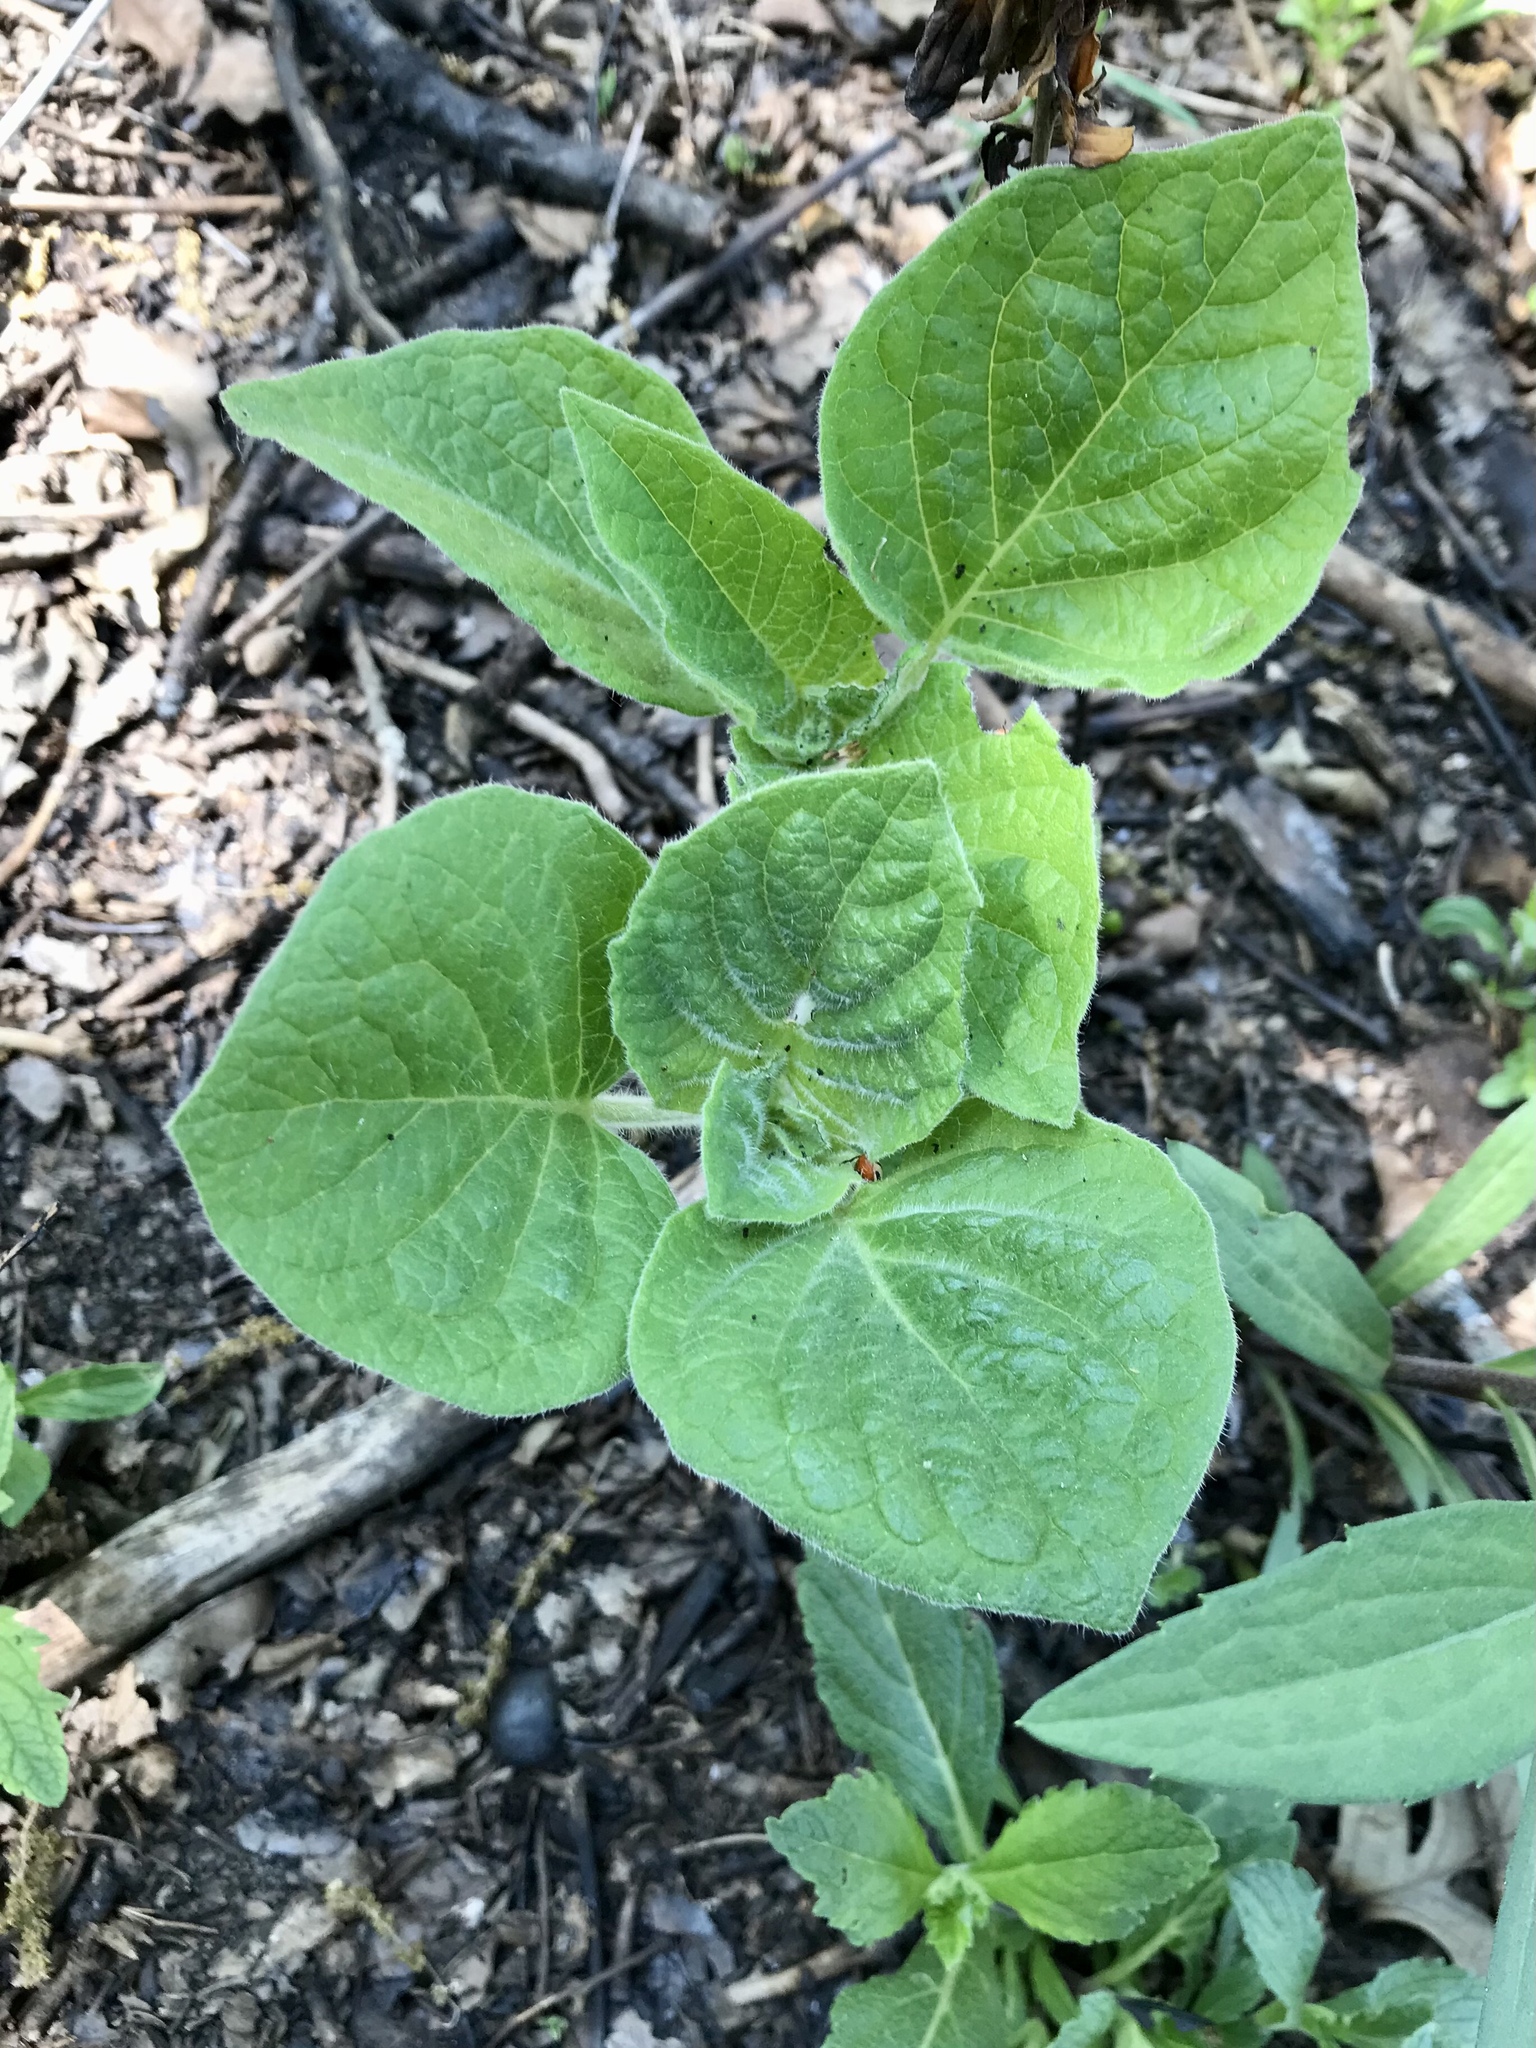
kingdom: Plantae
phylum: Tracheophyta
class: Magnoliopsida
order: Solanales
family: Solanaceae
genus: Physalis
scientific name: Physalis heterophylla
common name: Clammy ground-cherry
